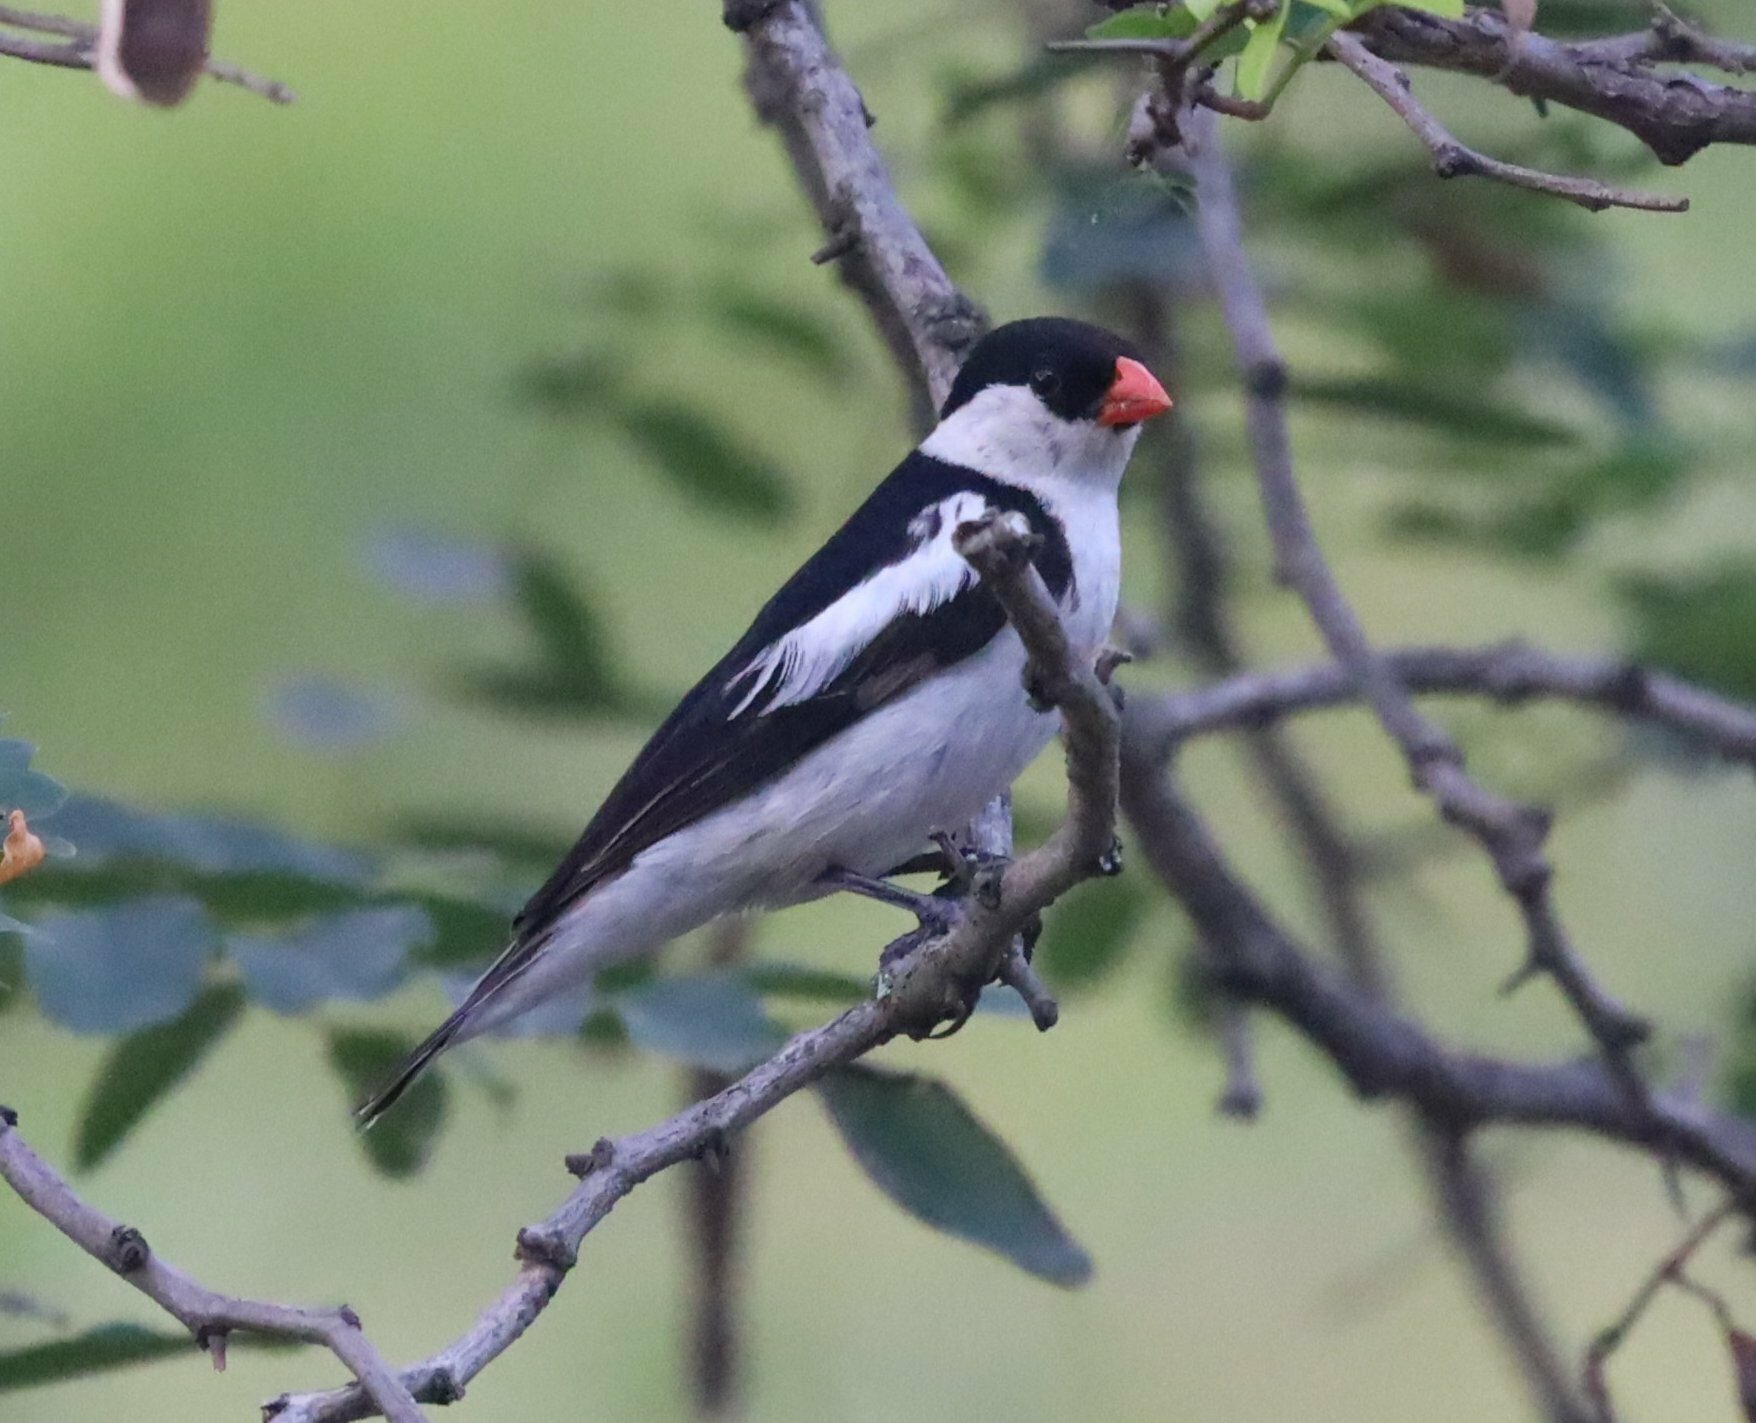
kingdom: Animalia
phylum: Chordata
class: Aves
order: Passeriformes
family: Viduidae
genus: Vidua
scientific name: Vidua macroura
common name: Pin-tailed whydah
